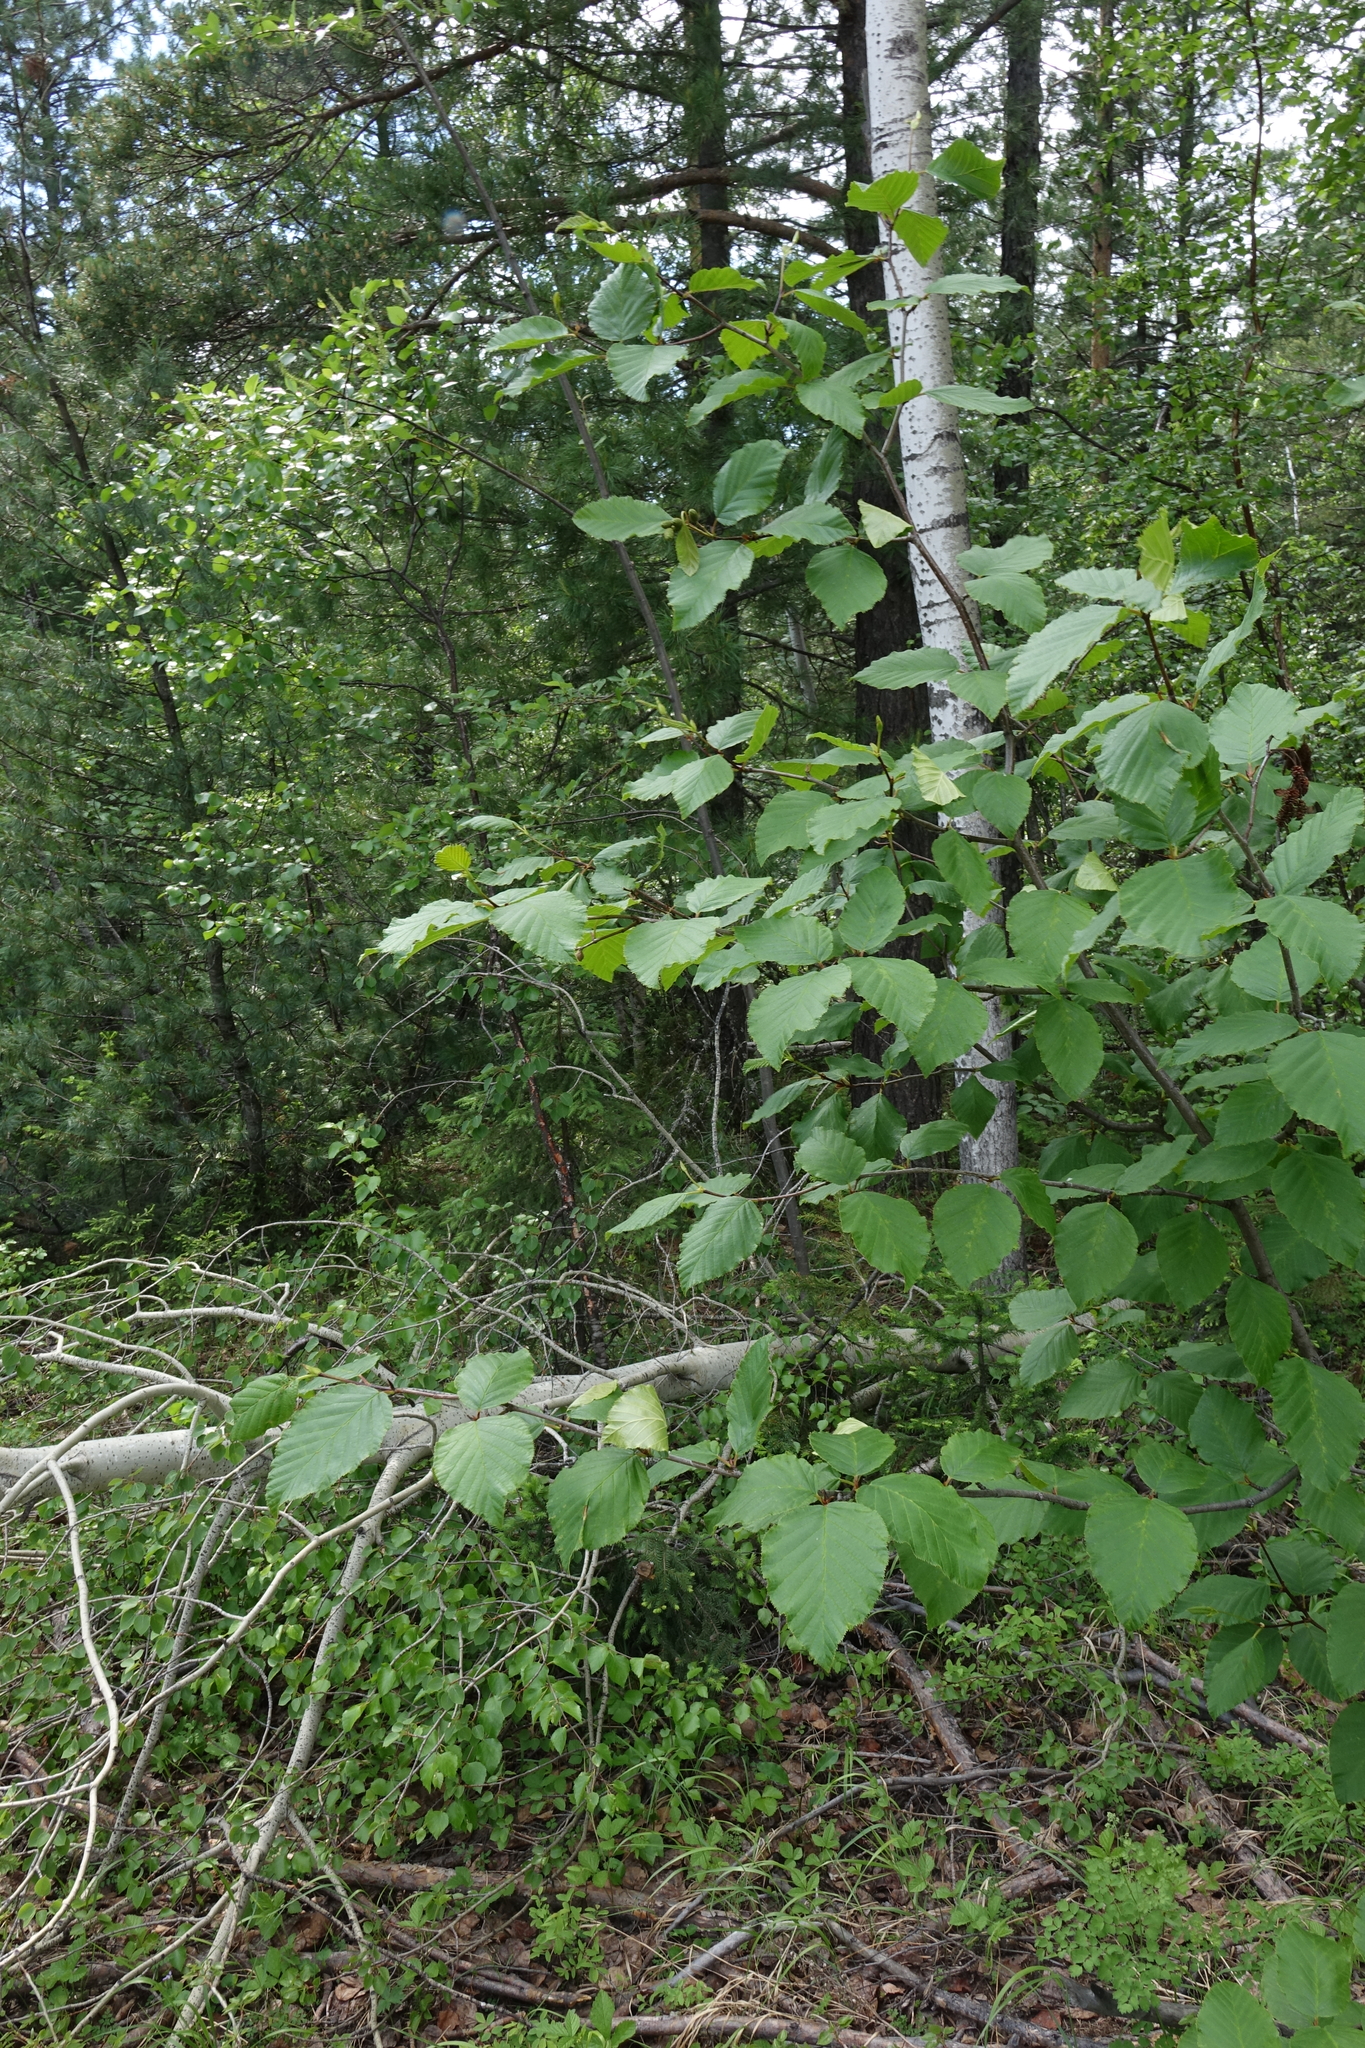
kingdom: Plantae
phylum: Tracheophyta
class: Magnoliopsida
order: Fagales
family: Betulaceae
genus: Alnus
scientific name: Alnus alnobetula
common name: Green alder
